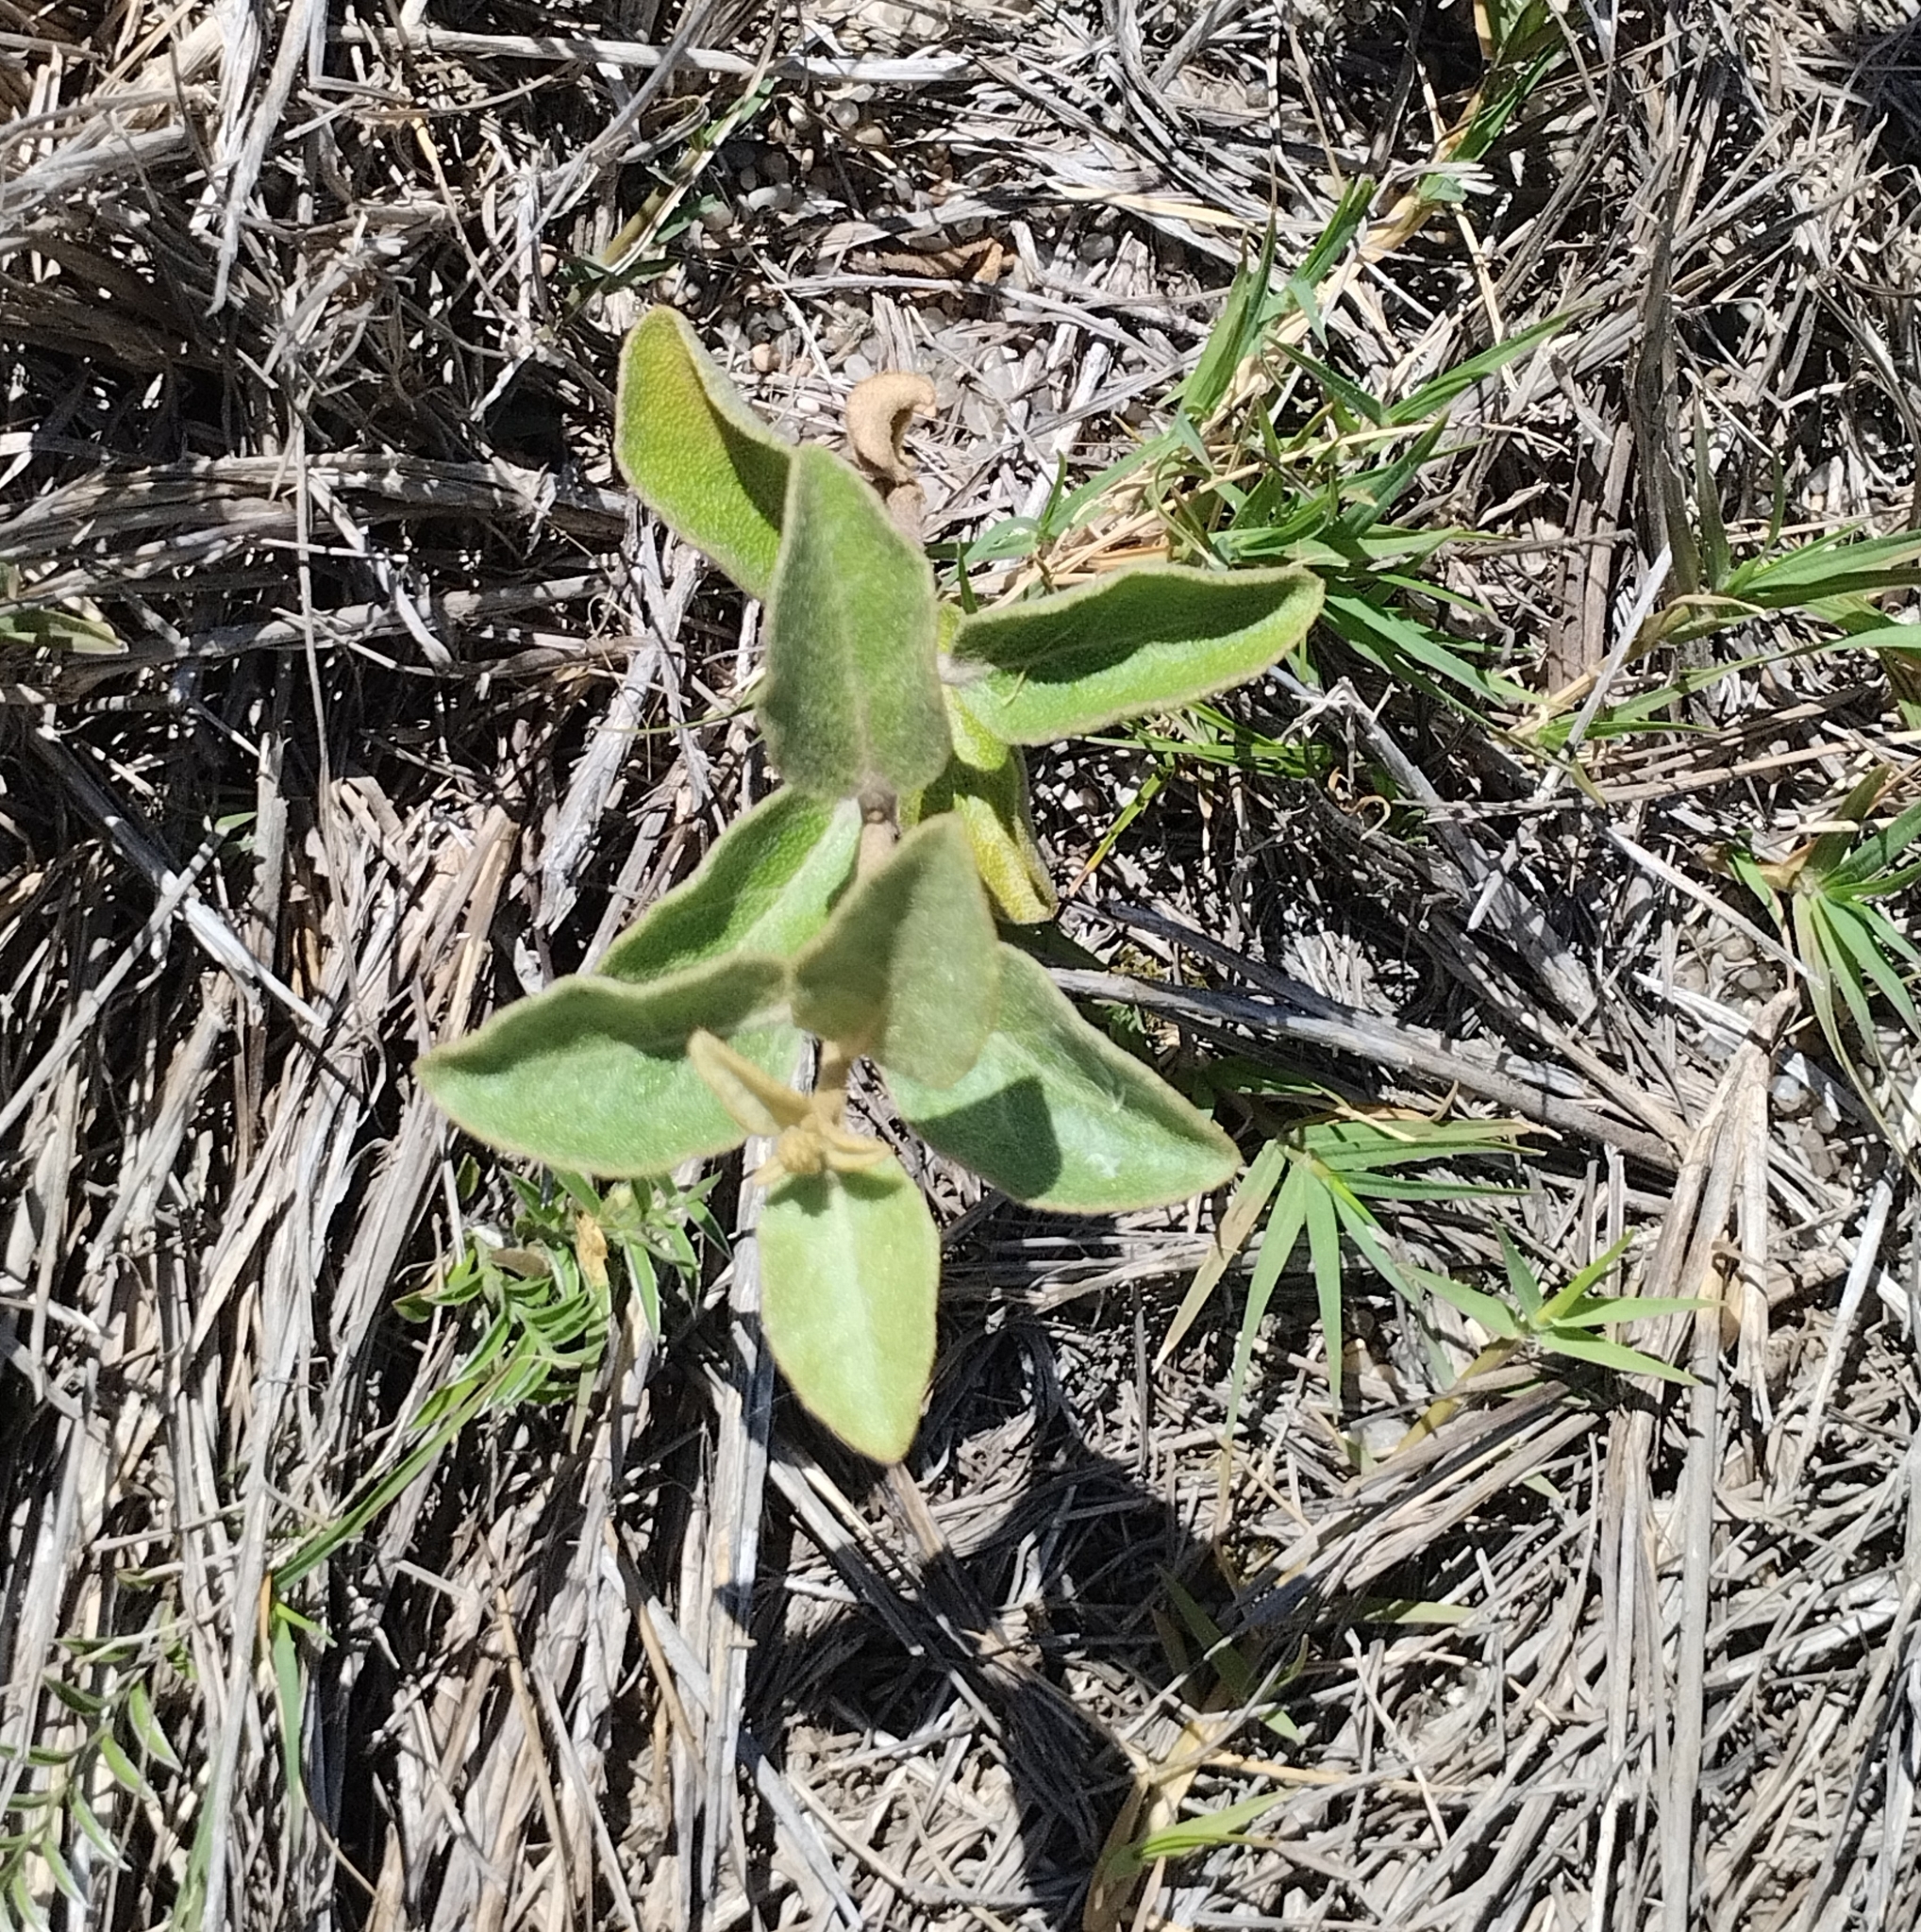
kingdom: Plantae
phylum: Tracheophyta
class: Magnoliopsida
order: Malpighiales
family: Euphorbiaceae
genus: Croton
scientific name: Croton lanatus
